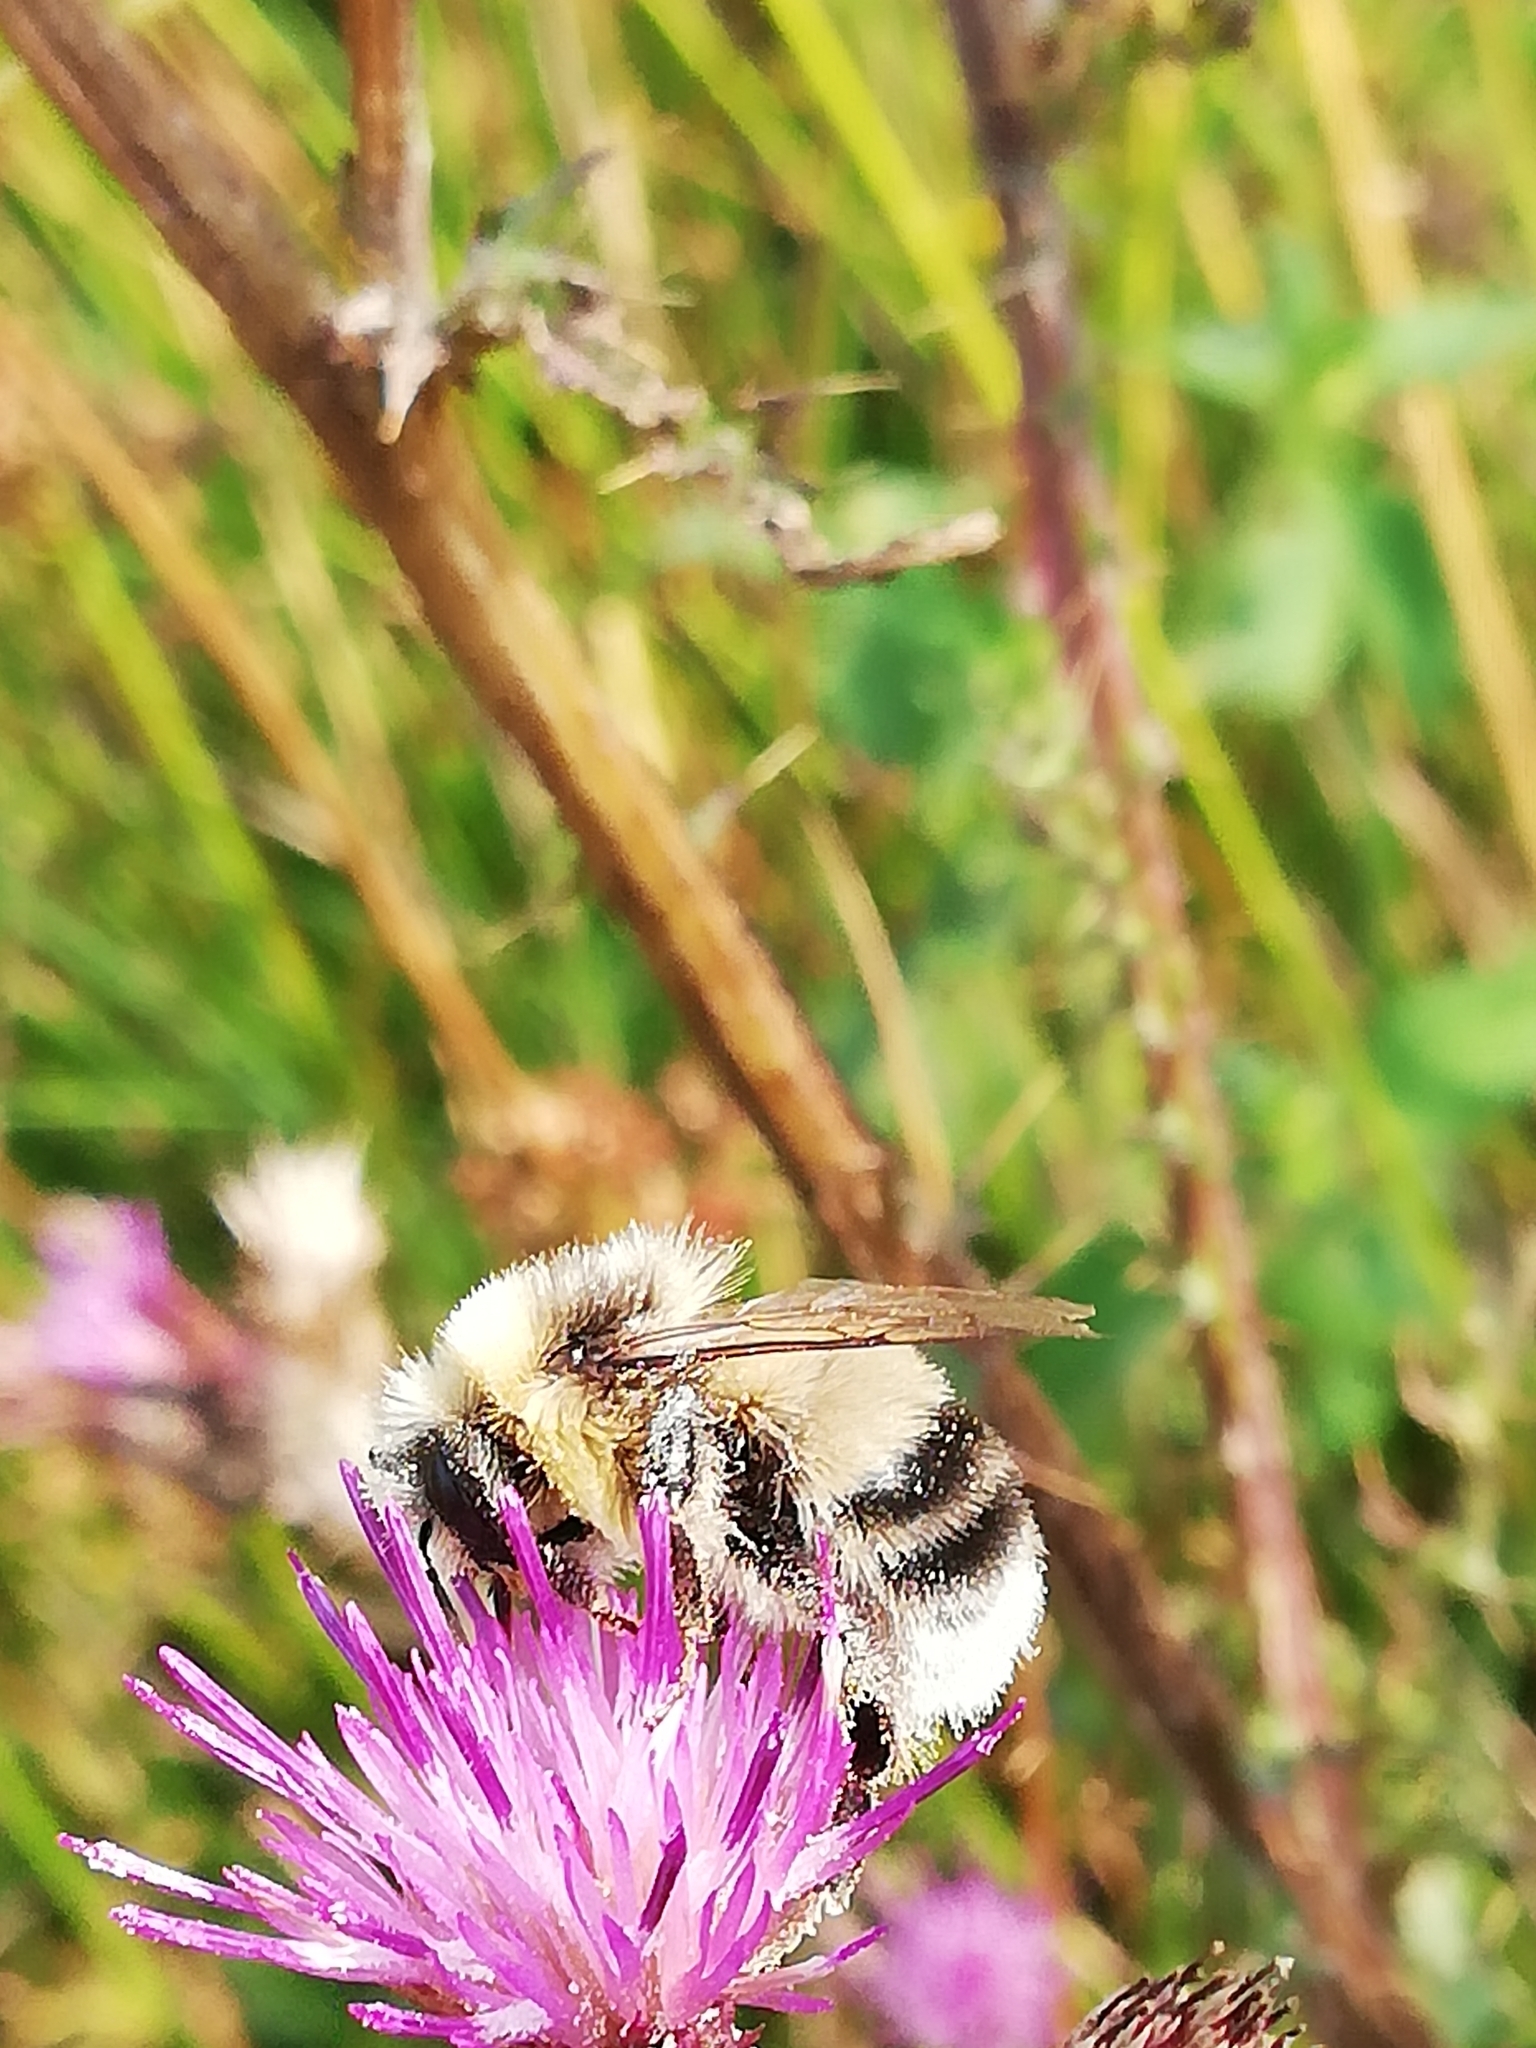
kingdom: Animalia
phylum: Arthropoda
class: Insecta
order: Hymenoptera
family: Apidae
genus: Bombus
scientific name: Bombus lucorum
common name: White-tailed bumblebee
